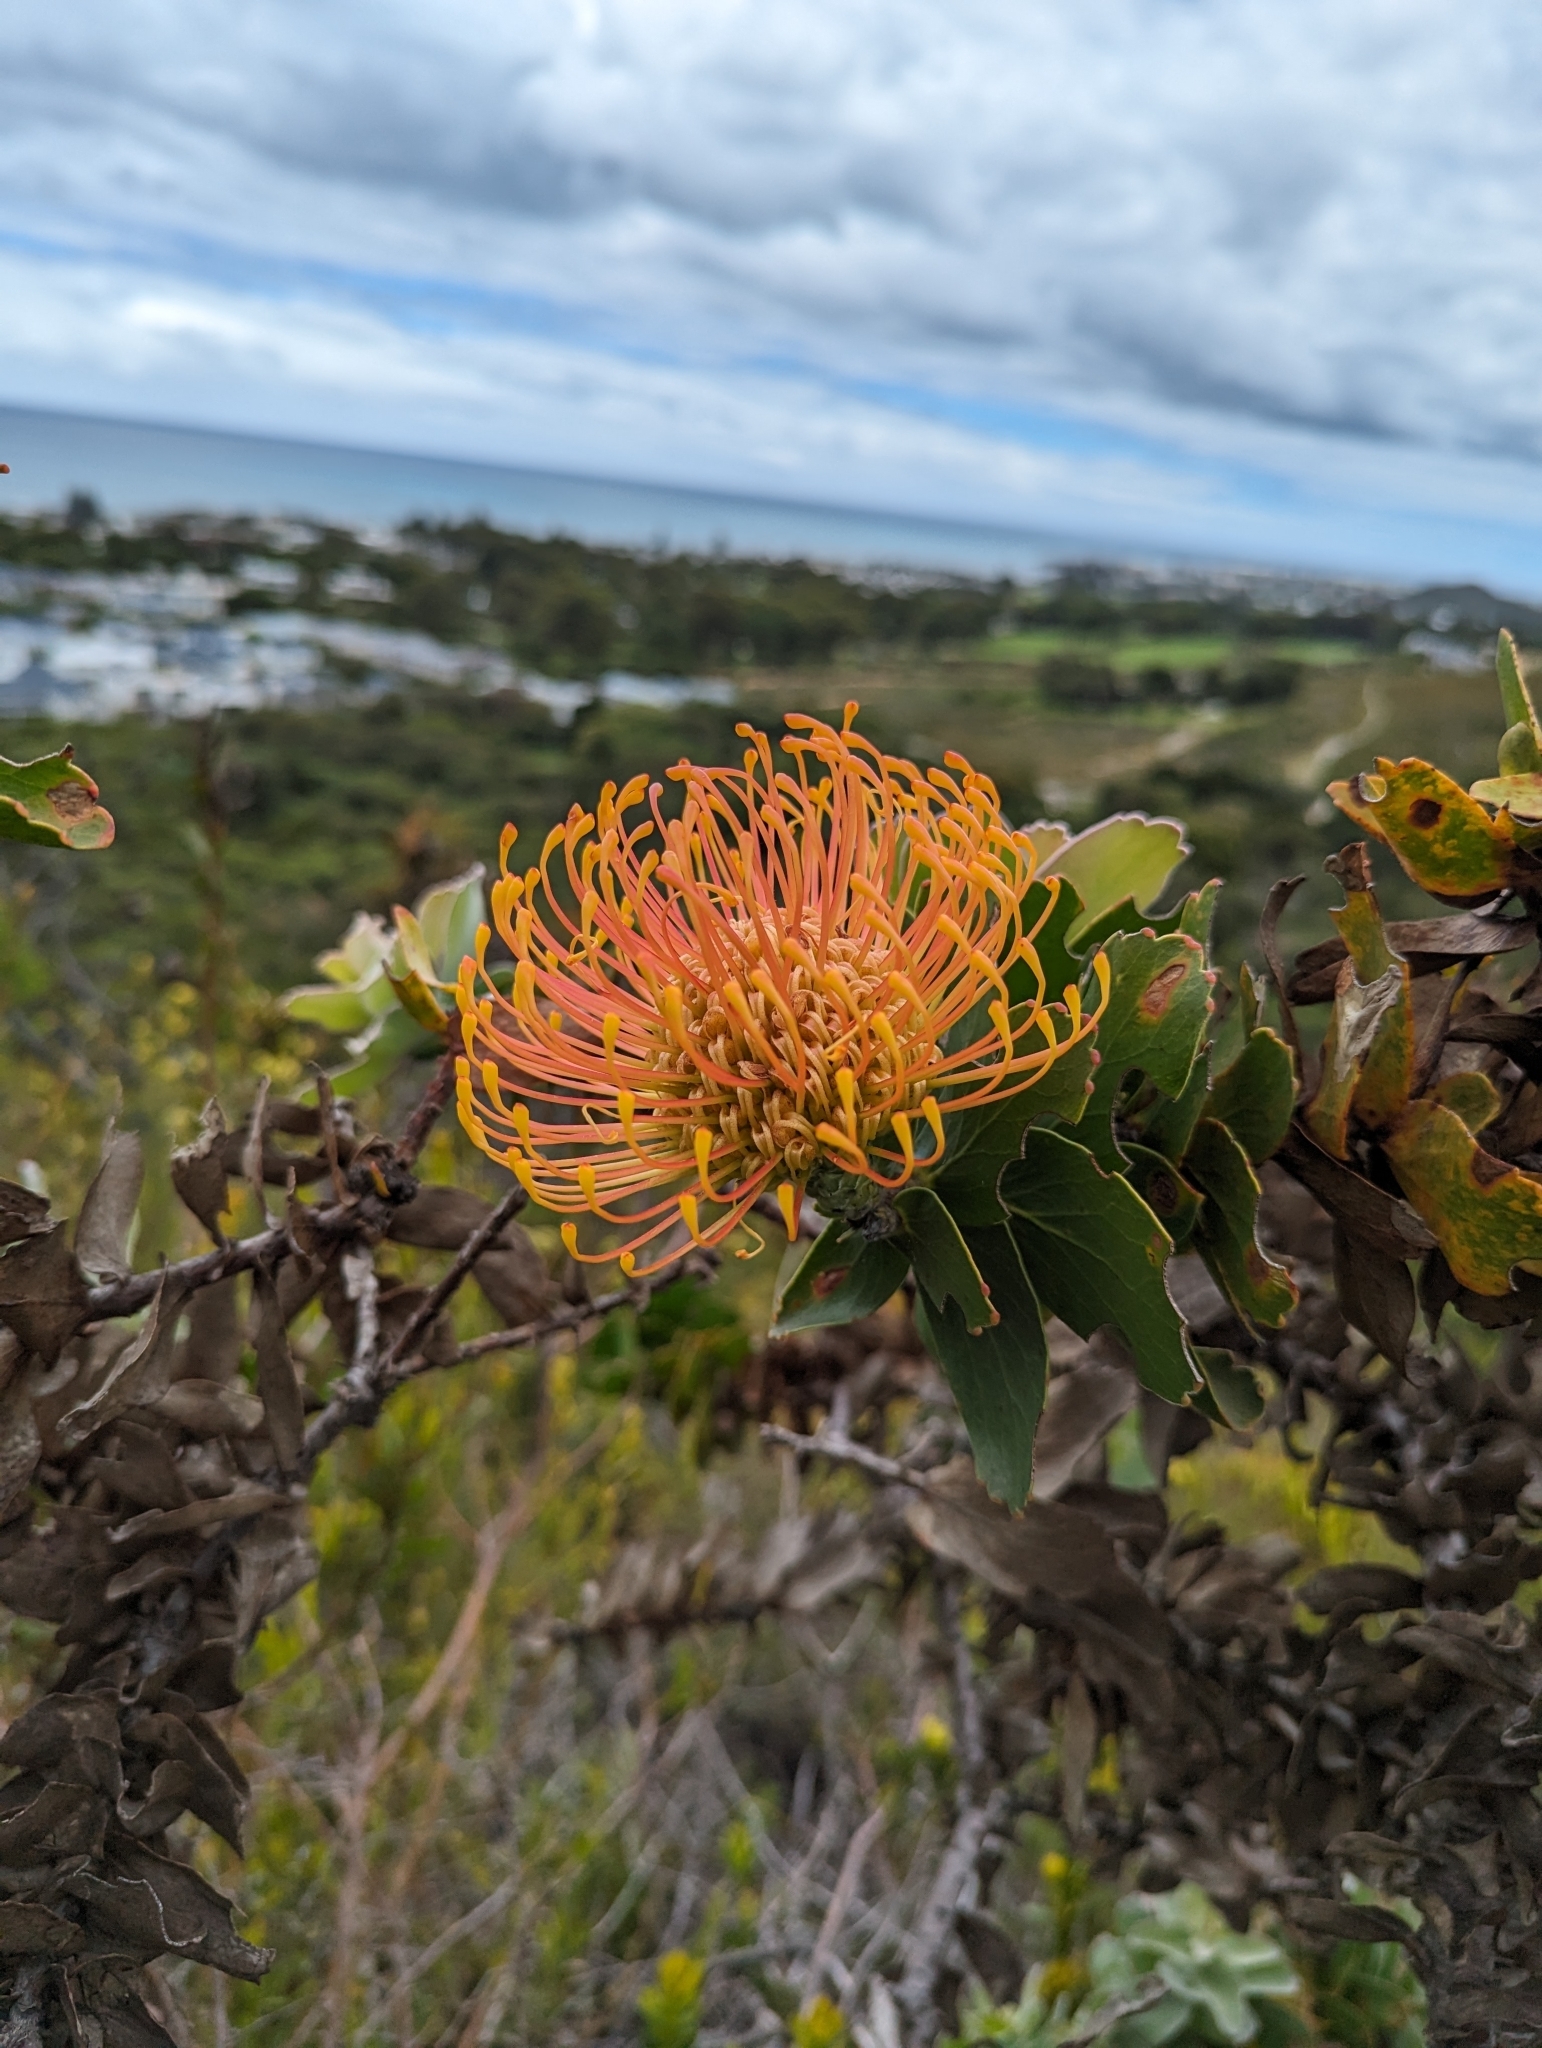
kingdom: Plantae
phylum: Tracheophyta
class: Magnoliopsida
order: Proteales
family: Proteaceae
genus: Leucospermum
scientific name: Leucospermum cordifolium
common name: Red pincushion-protea
